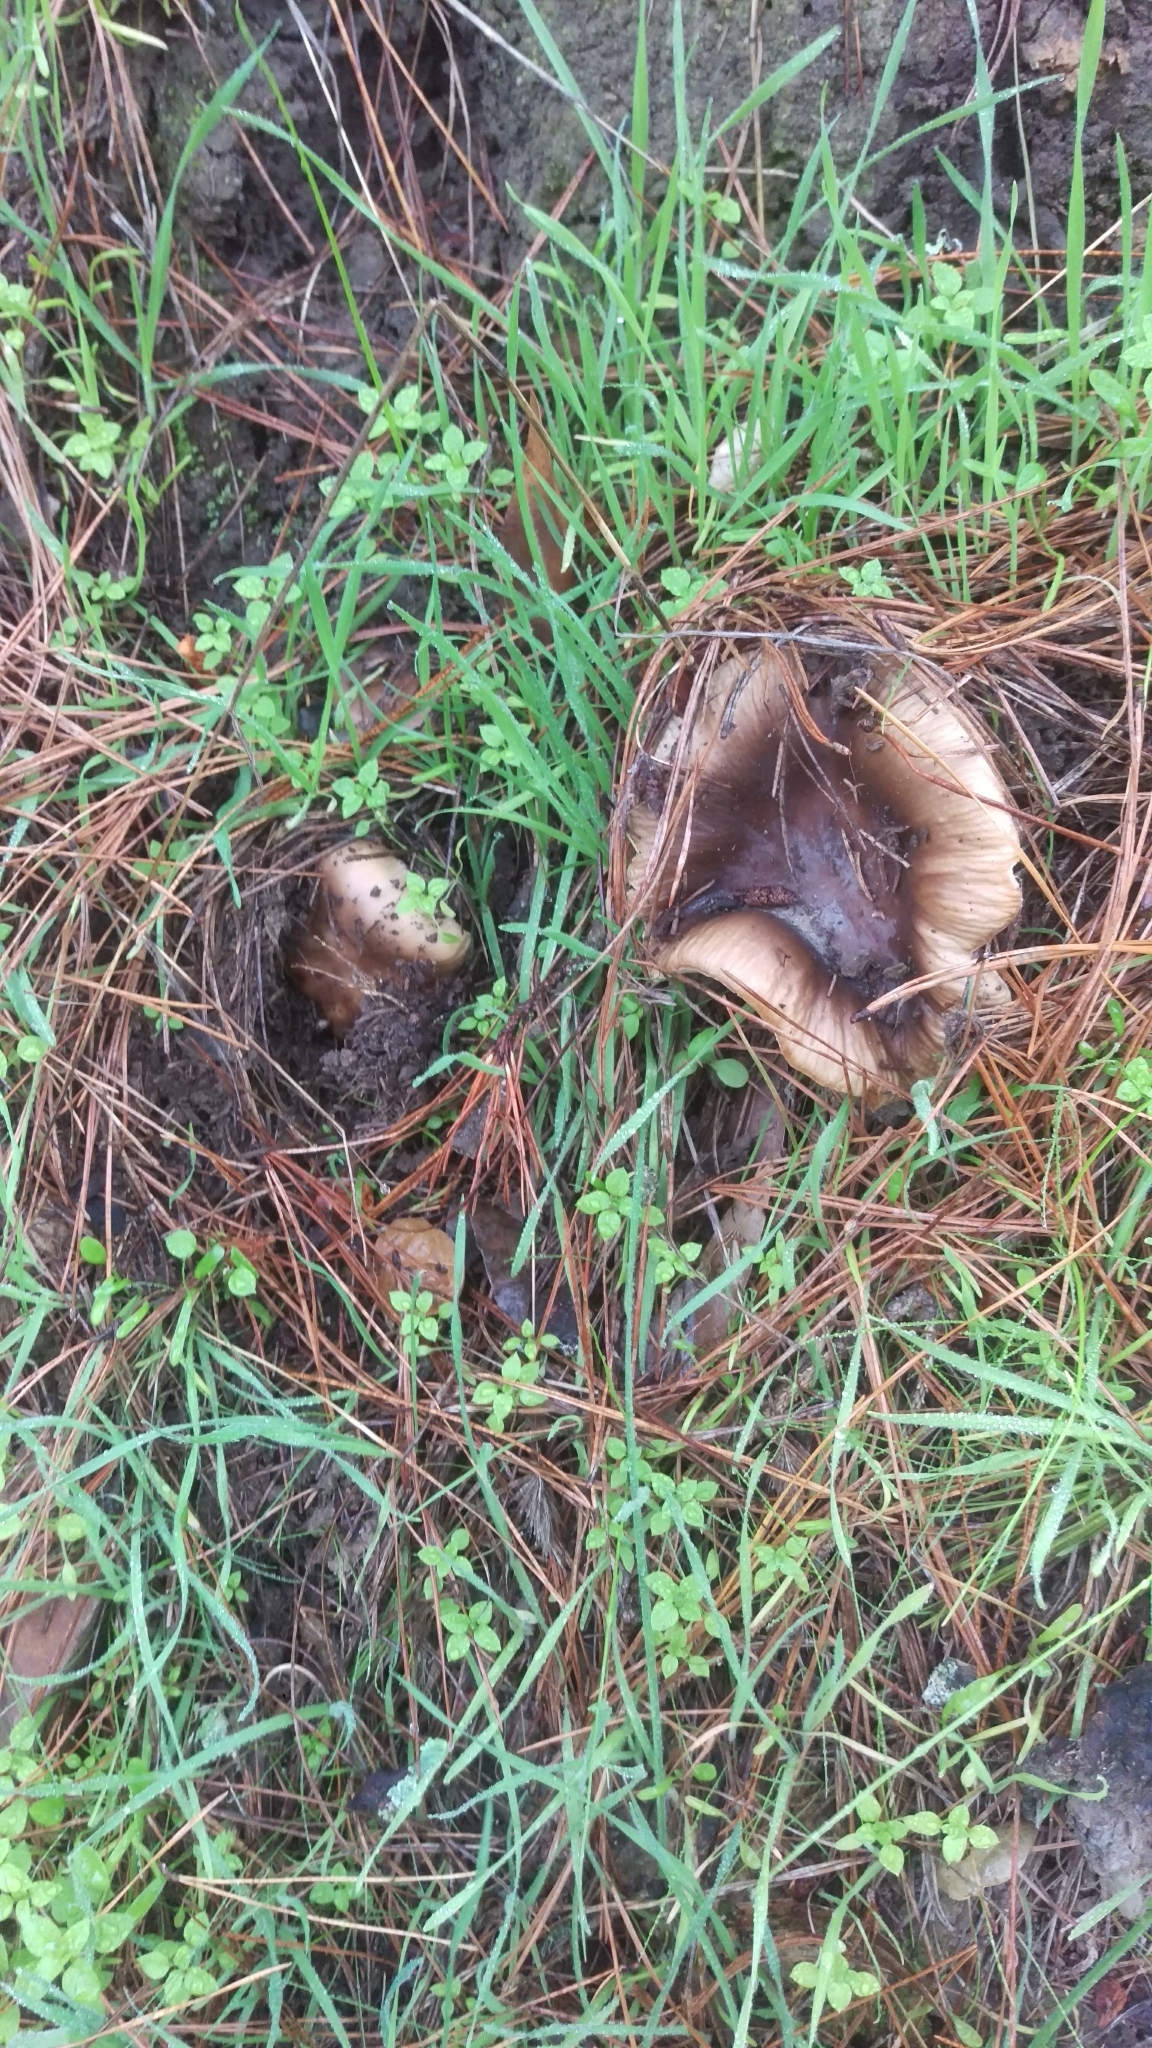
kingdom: Fungi
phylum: Basidiomycota
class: Agaricomycetes
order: Russulales
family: Russulaceae
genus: Russula
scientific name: Russula cerolens
